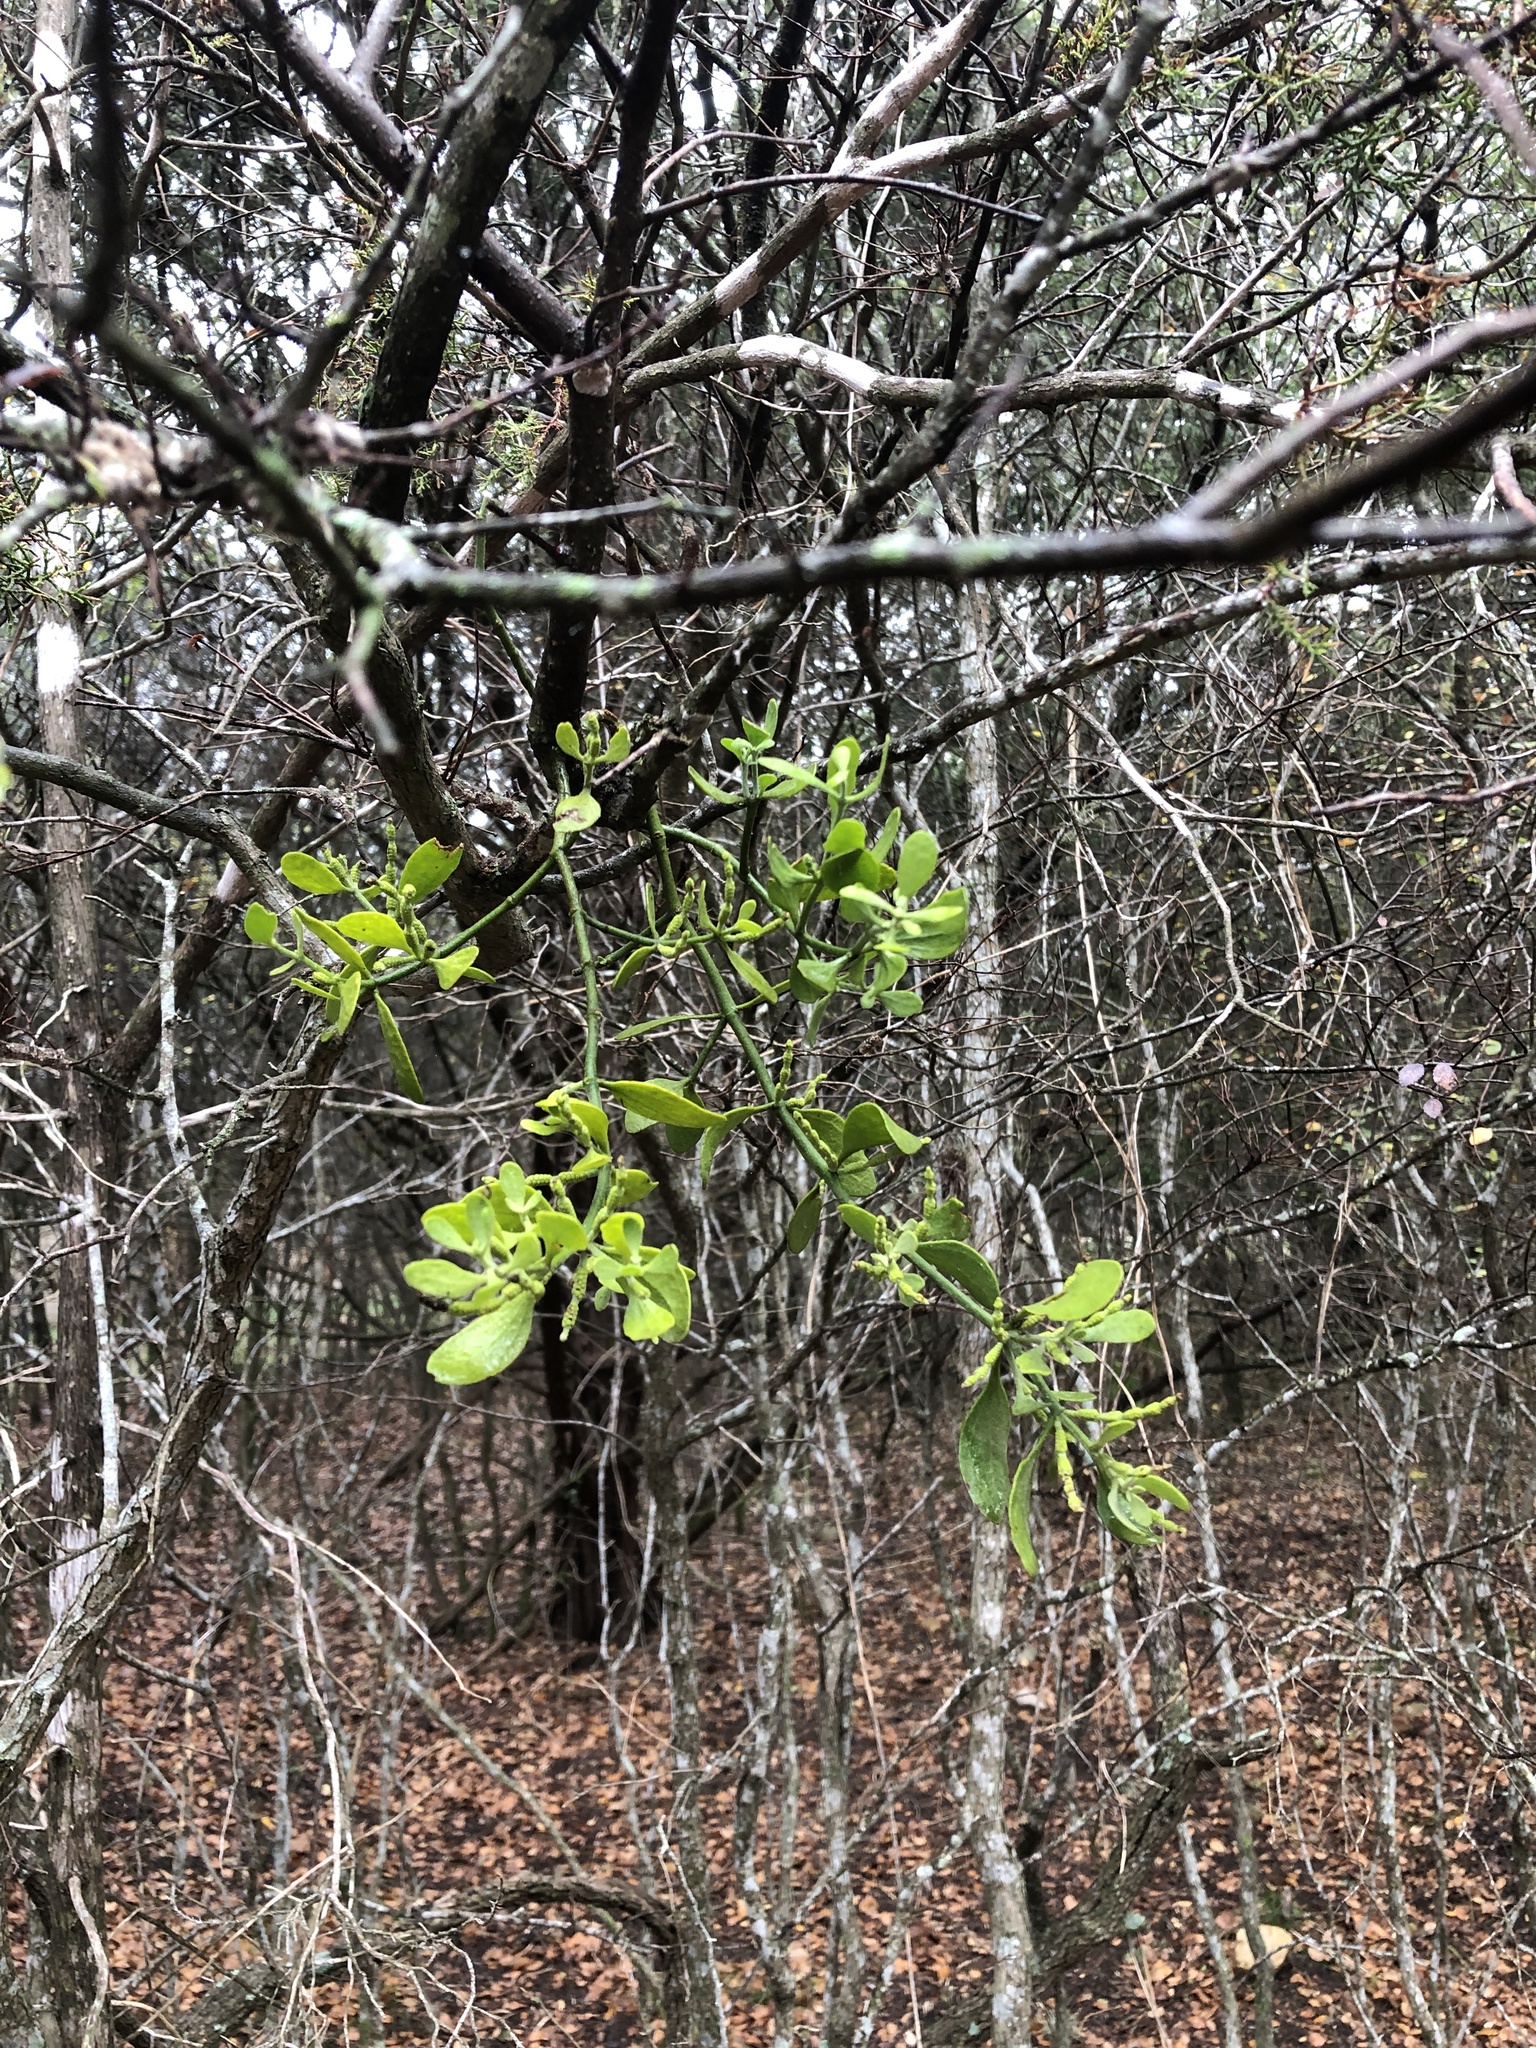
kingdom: Plantae
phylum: Tracheophyta
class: Magnoliopsida
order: Santalales
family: Viscaceae
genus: Phoradendron
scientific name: Phoradendron leucarpum
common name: Pacific mistletoe
